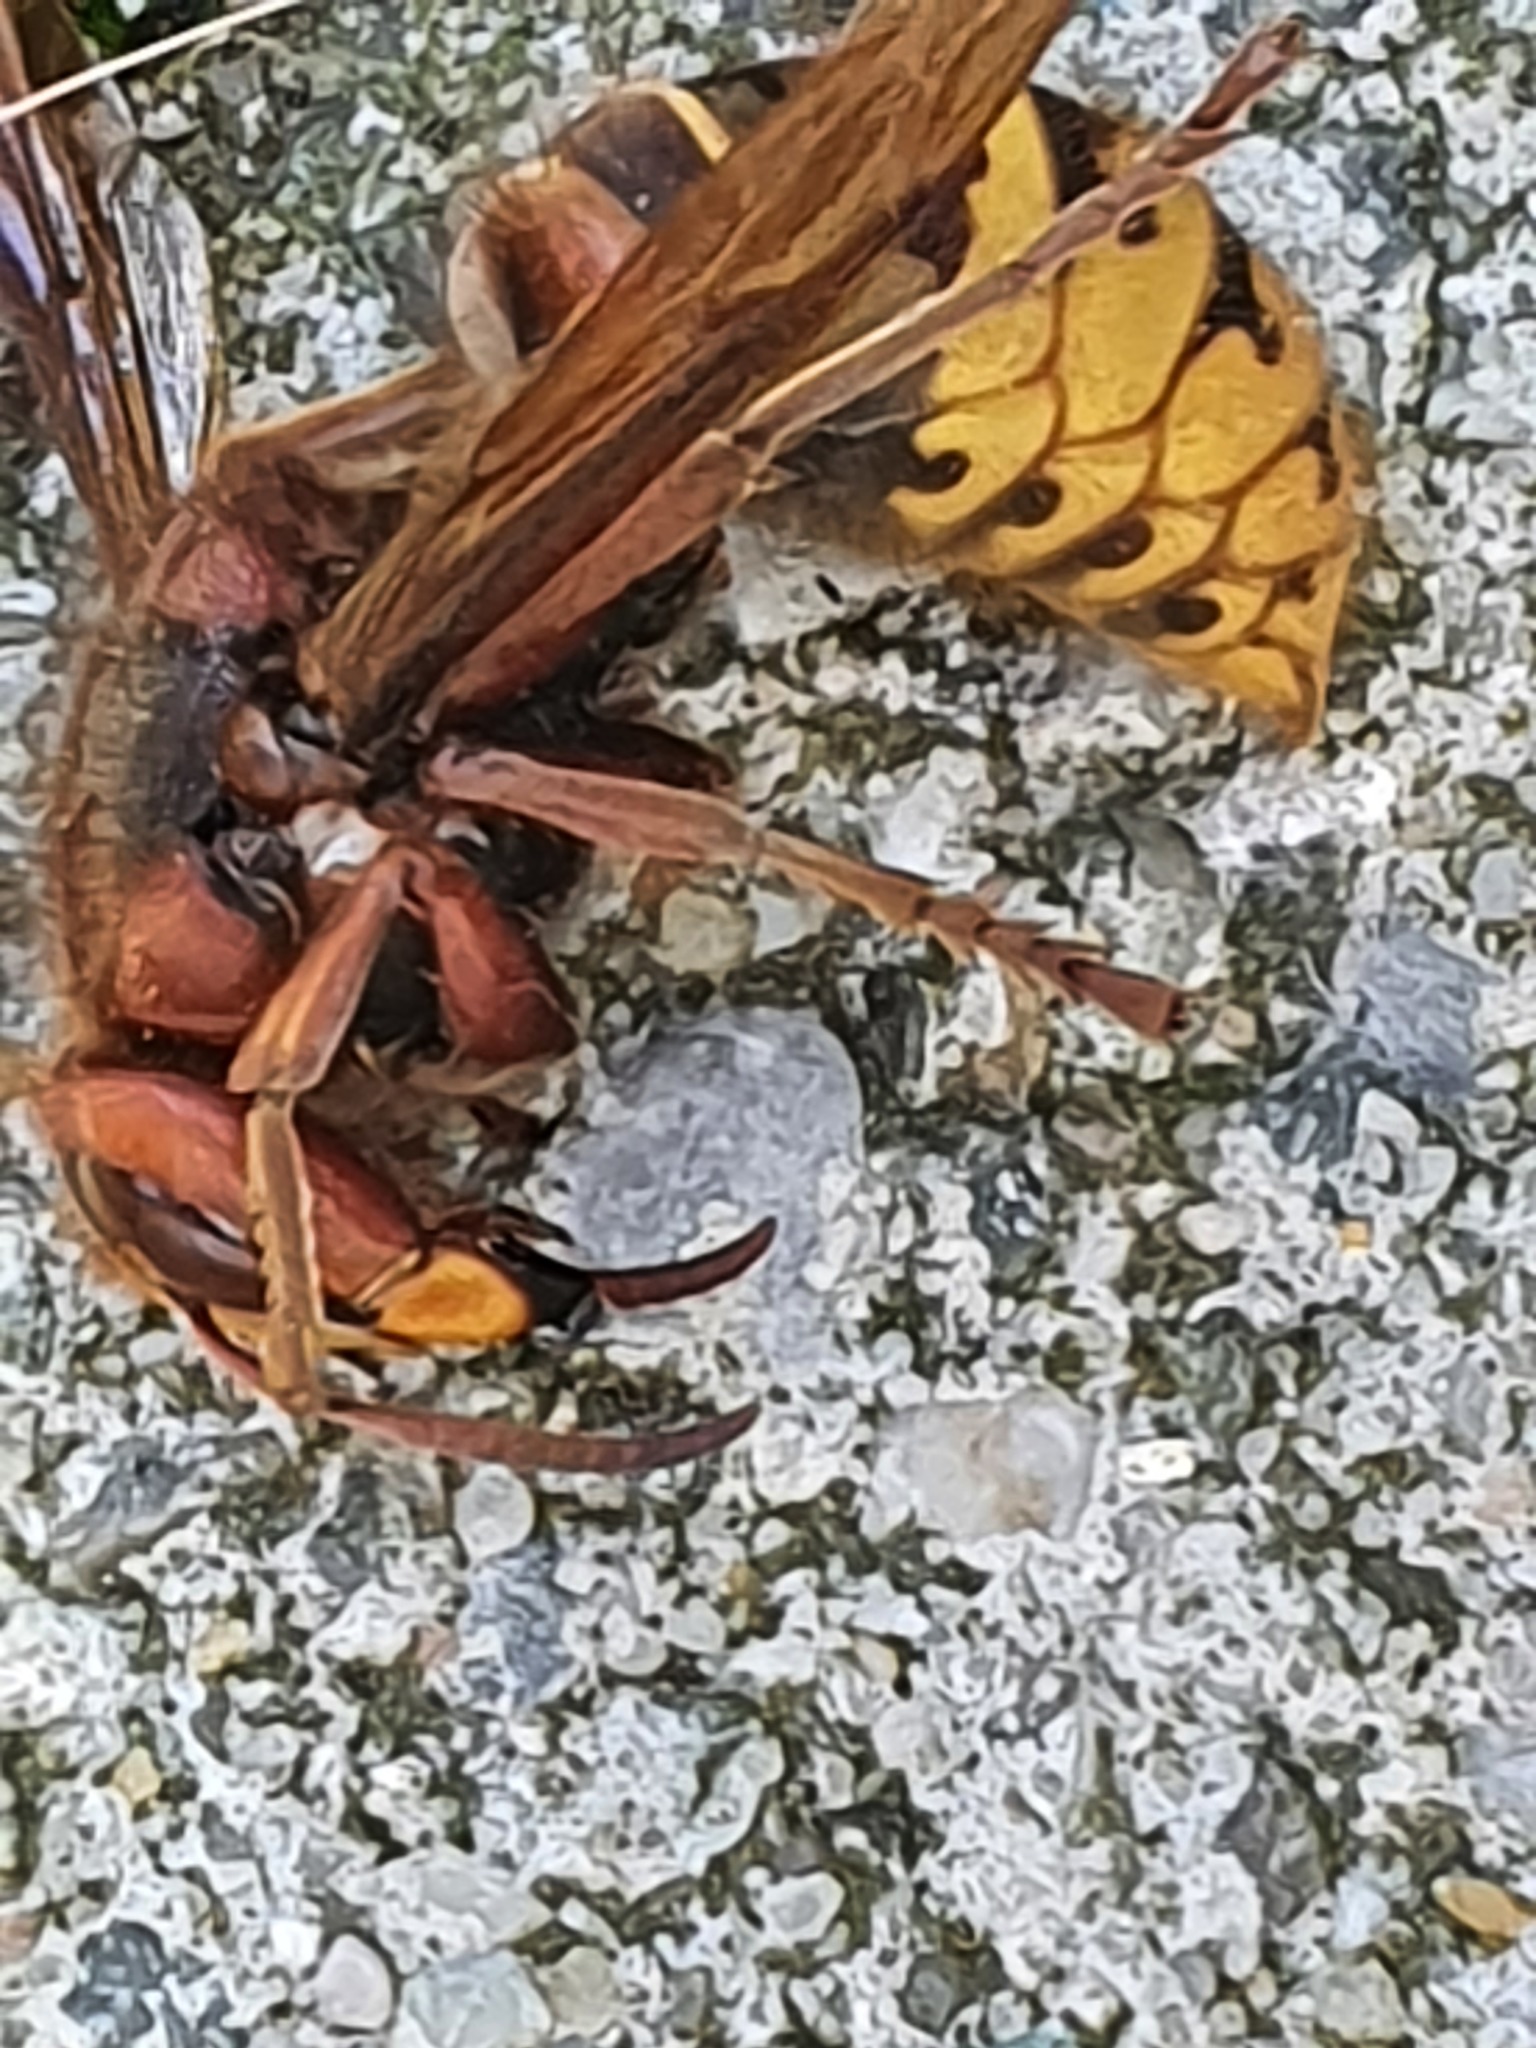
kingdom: Animalia
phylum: Arthropoda
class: Insecta
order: Hymenoptera
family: Vespidae
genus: Vespa
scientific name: Vespa crabro
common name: Hornet
